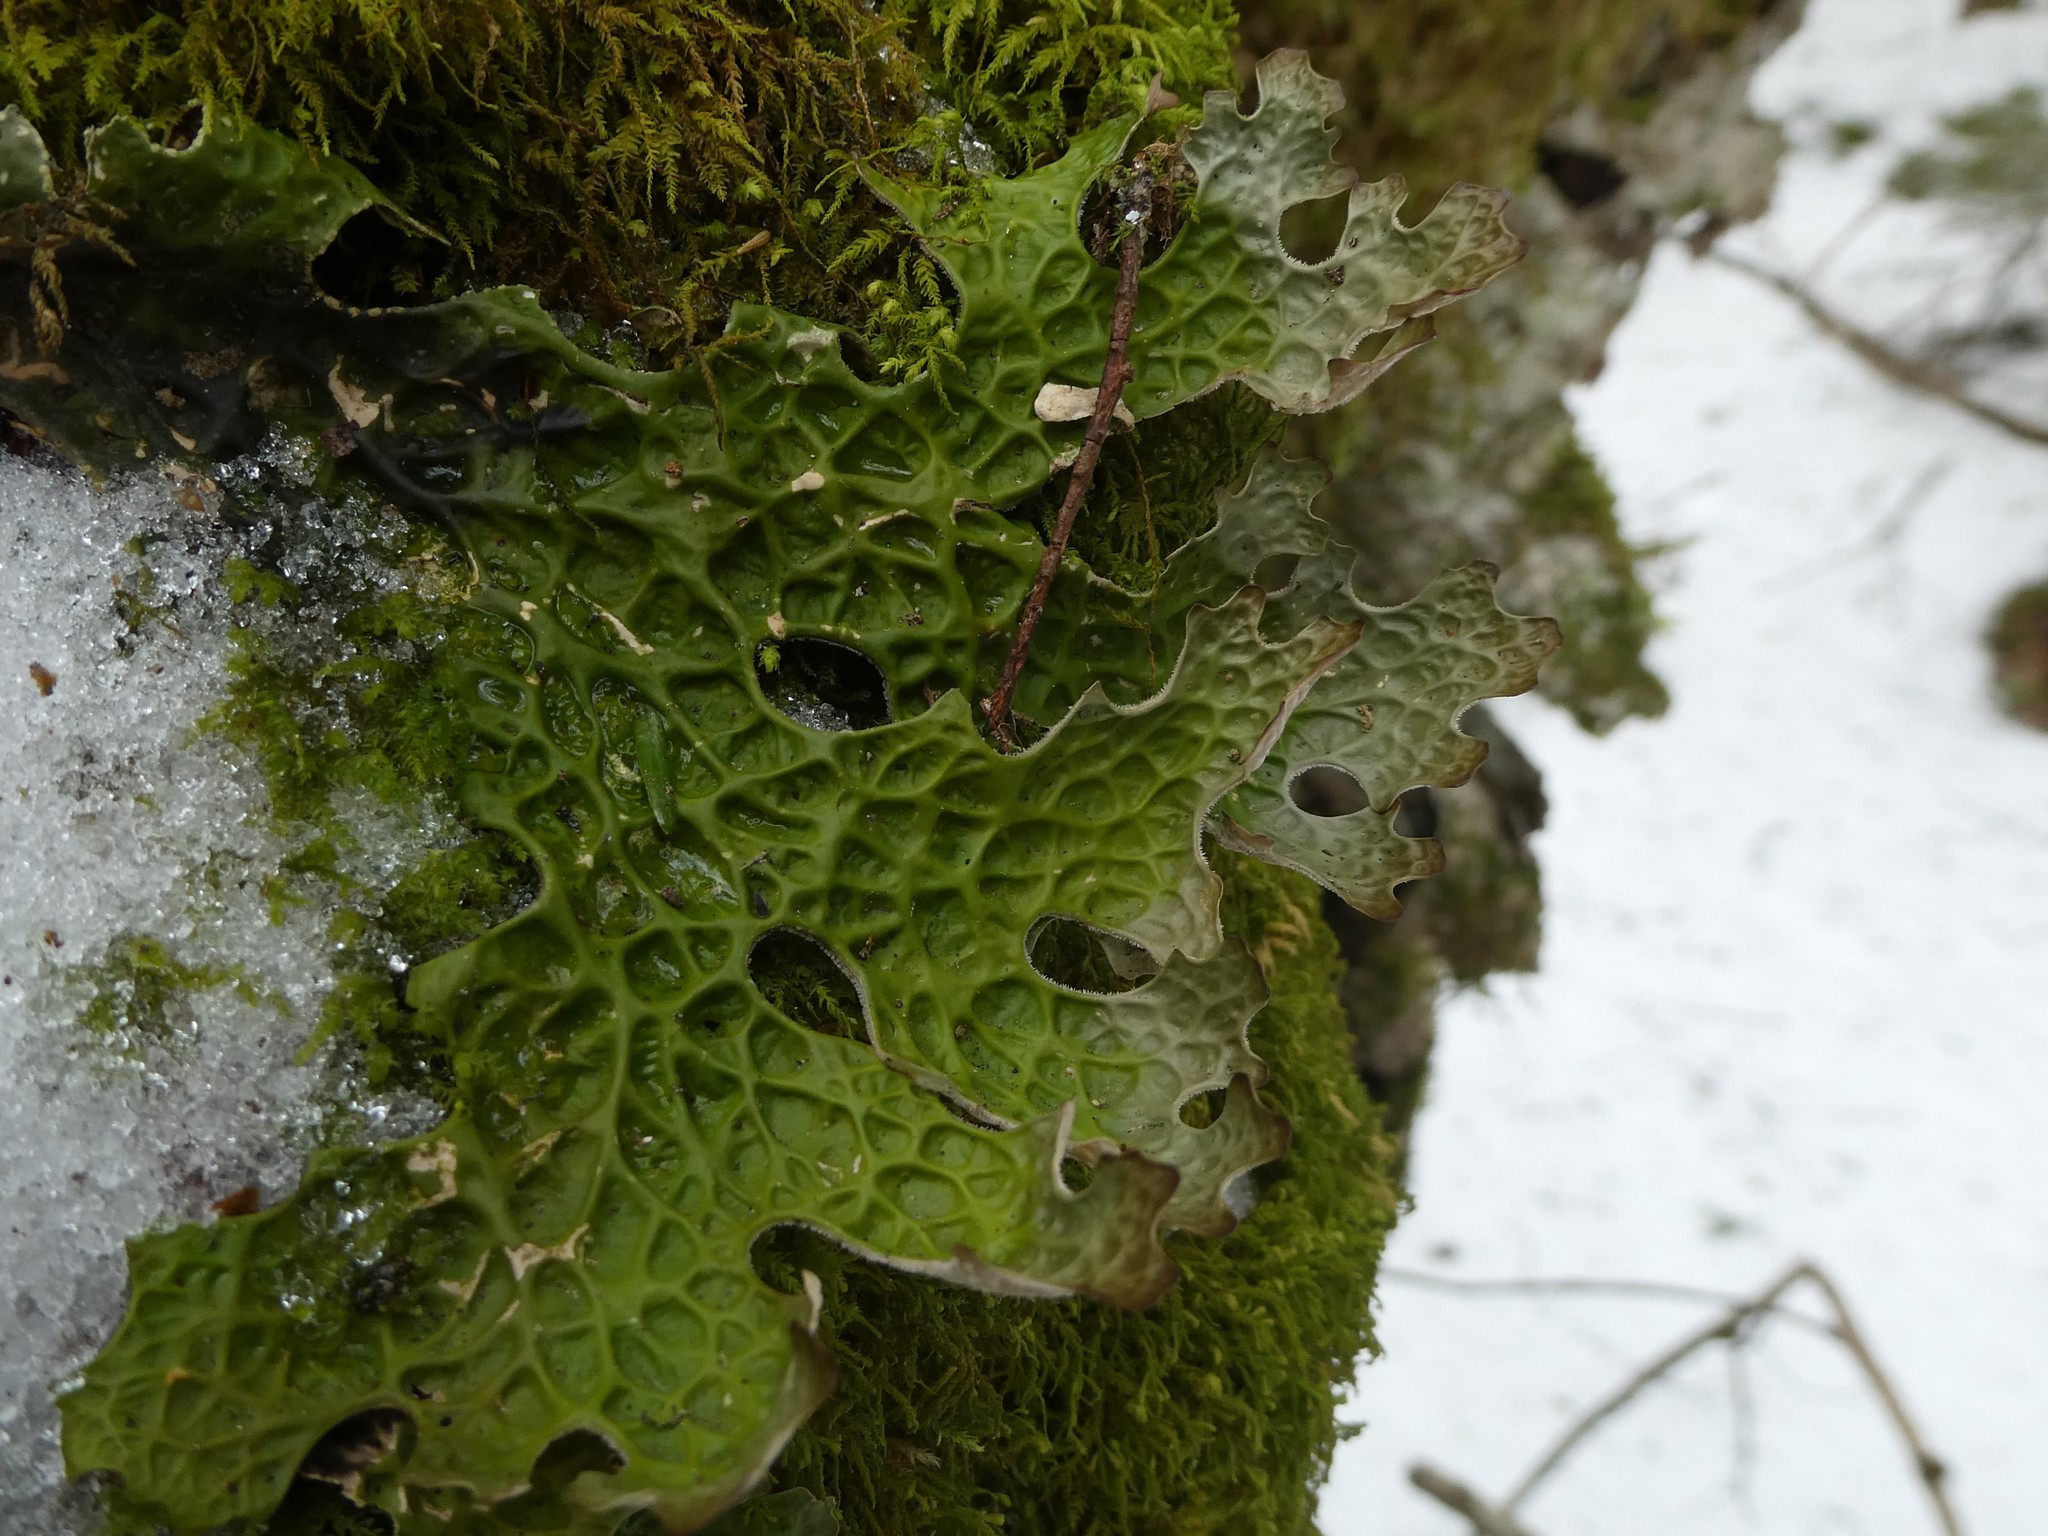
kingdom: Fungi
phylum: Ascomycota
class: Lecanoromycetes
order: Peltigerales
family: Lobariaceae
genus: Lobaria
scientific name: Lobaria pulmonaria
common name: Lungwort
